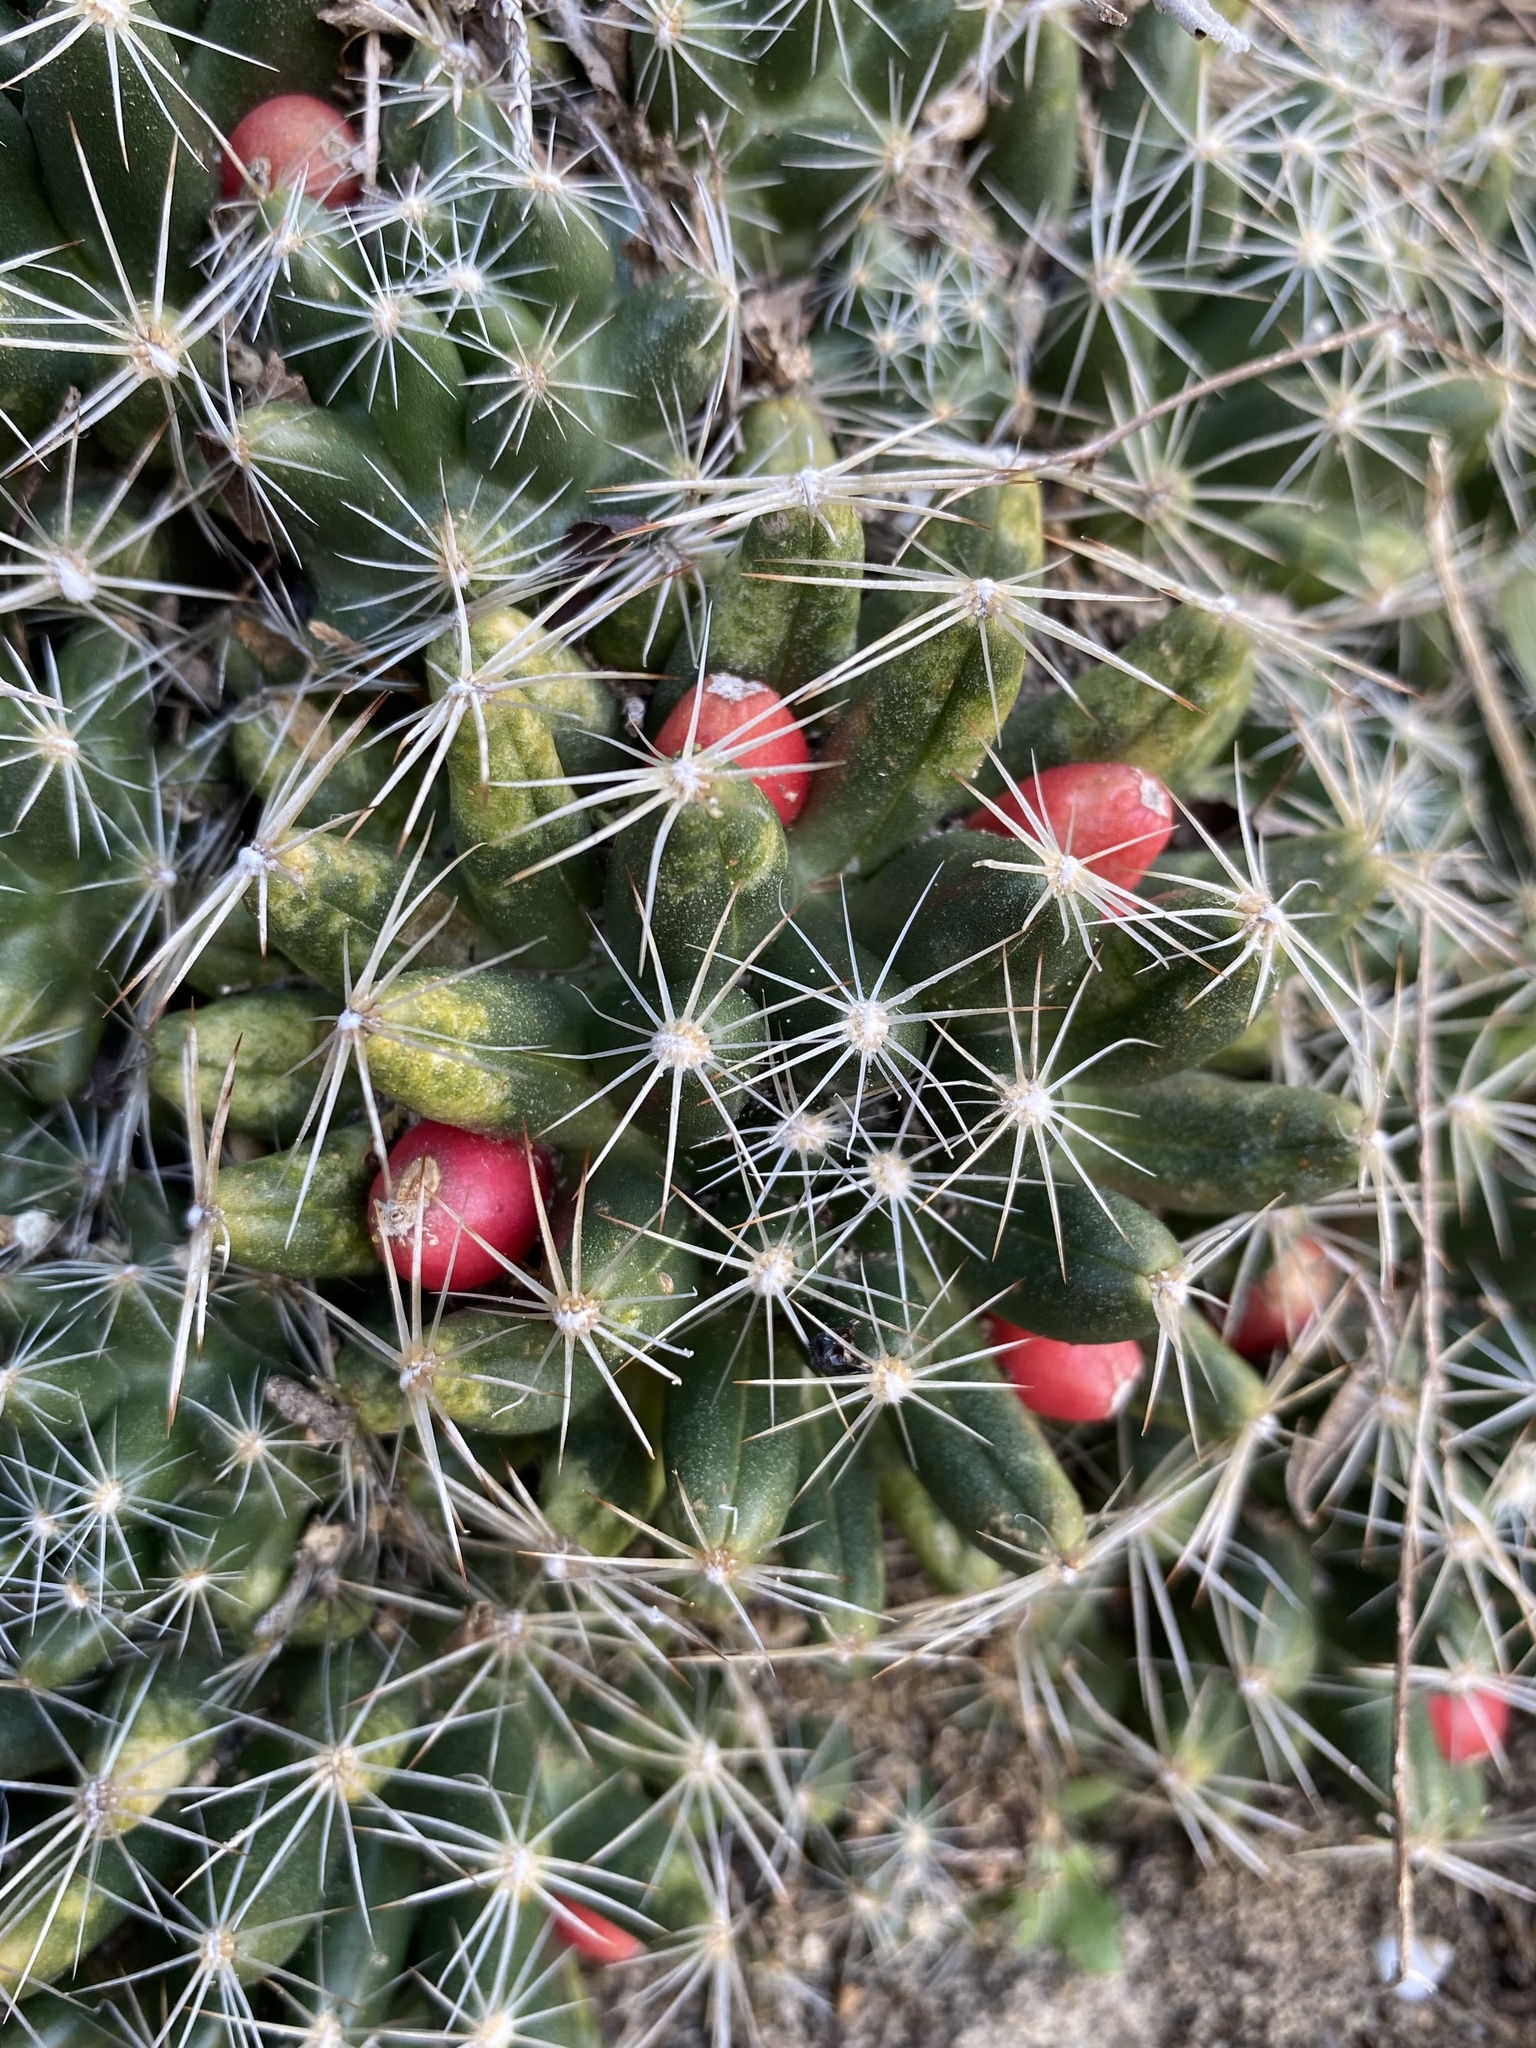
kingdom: Plantae
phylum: Tracheophyta
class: Magnoliopsida
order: Caryophyllales
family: Cactaceae
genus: Pelecyphora
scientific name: Pelecyphora missouriensis
